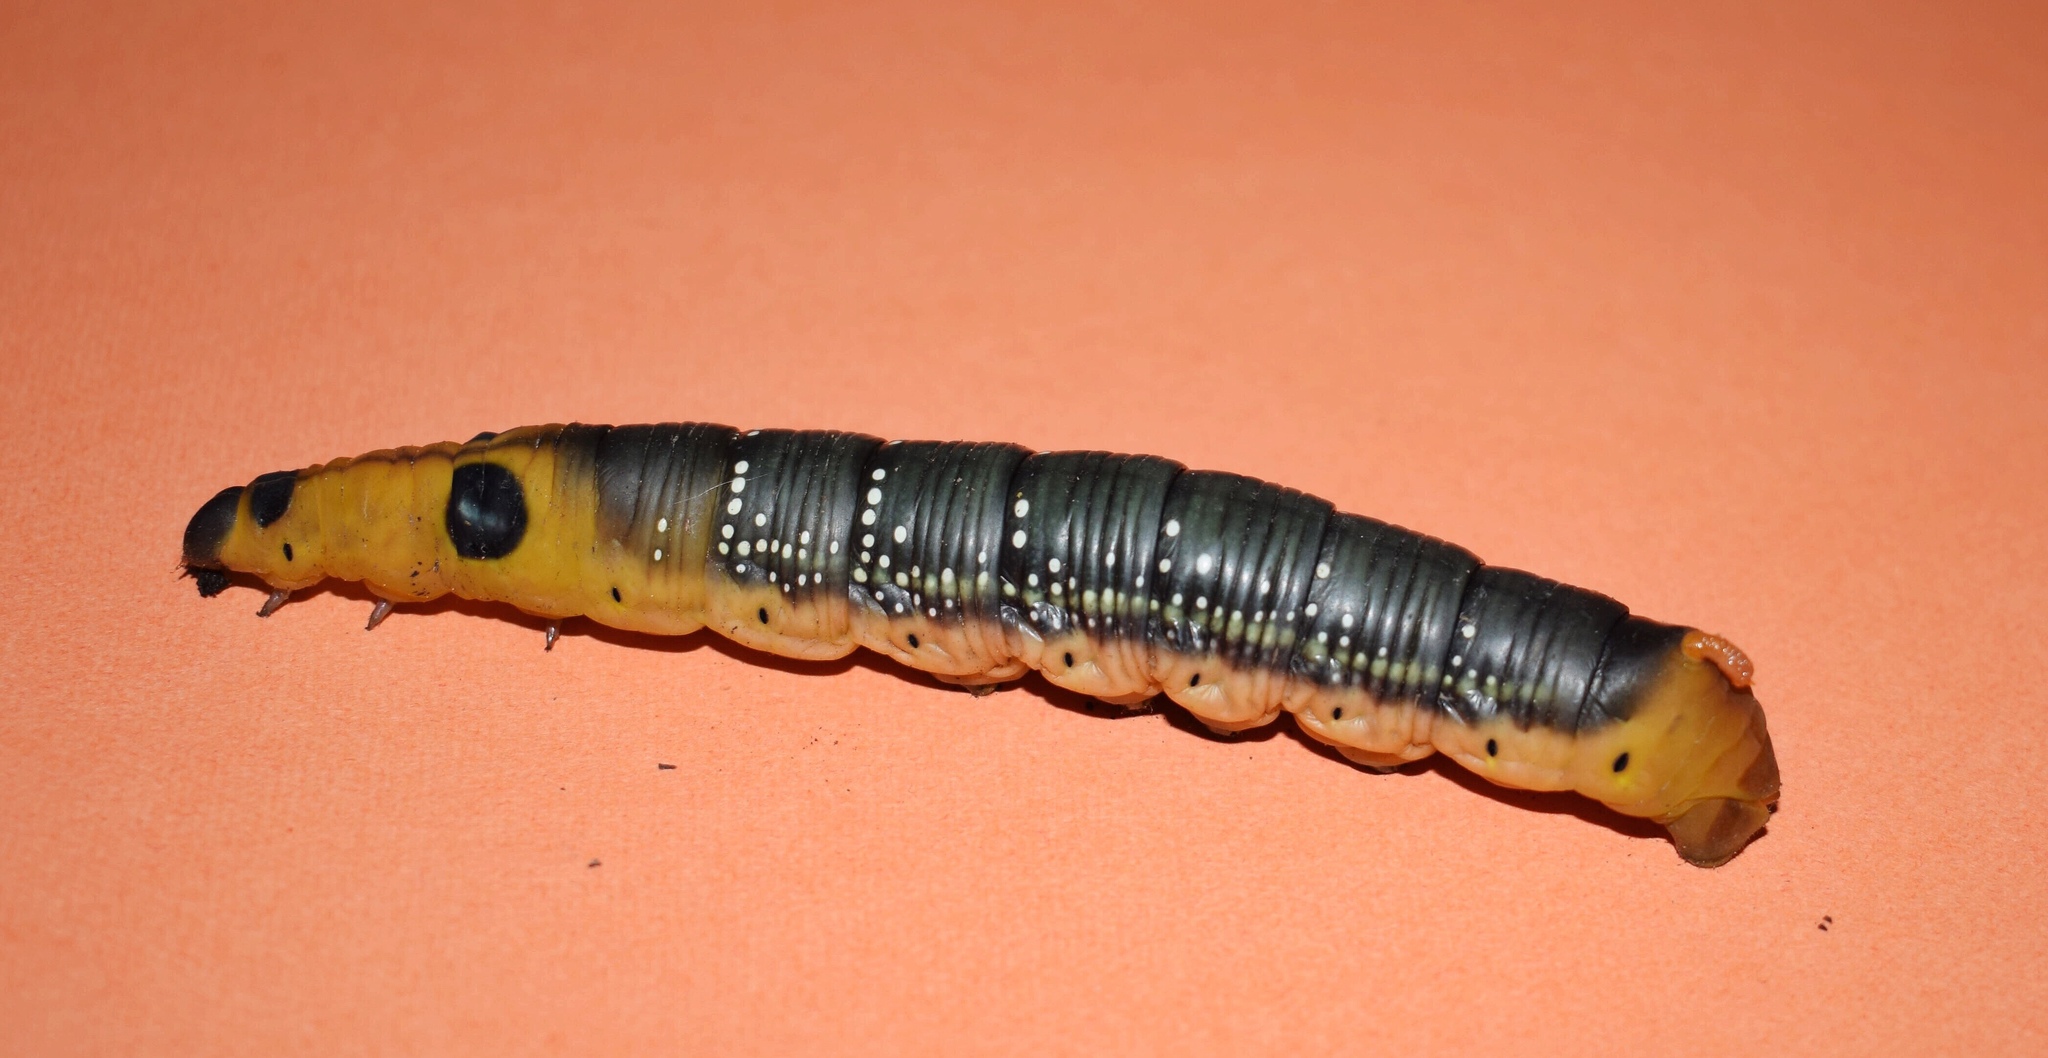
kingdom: Animalia
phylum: Arthropoda
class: Insecta
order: Lepidoptera
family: Sphingidae
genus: Daphnis
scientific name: Daphnis nerii
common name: Oleander hawk-moth
